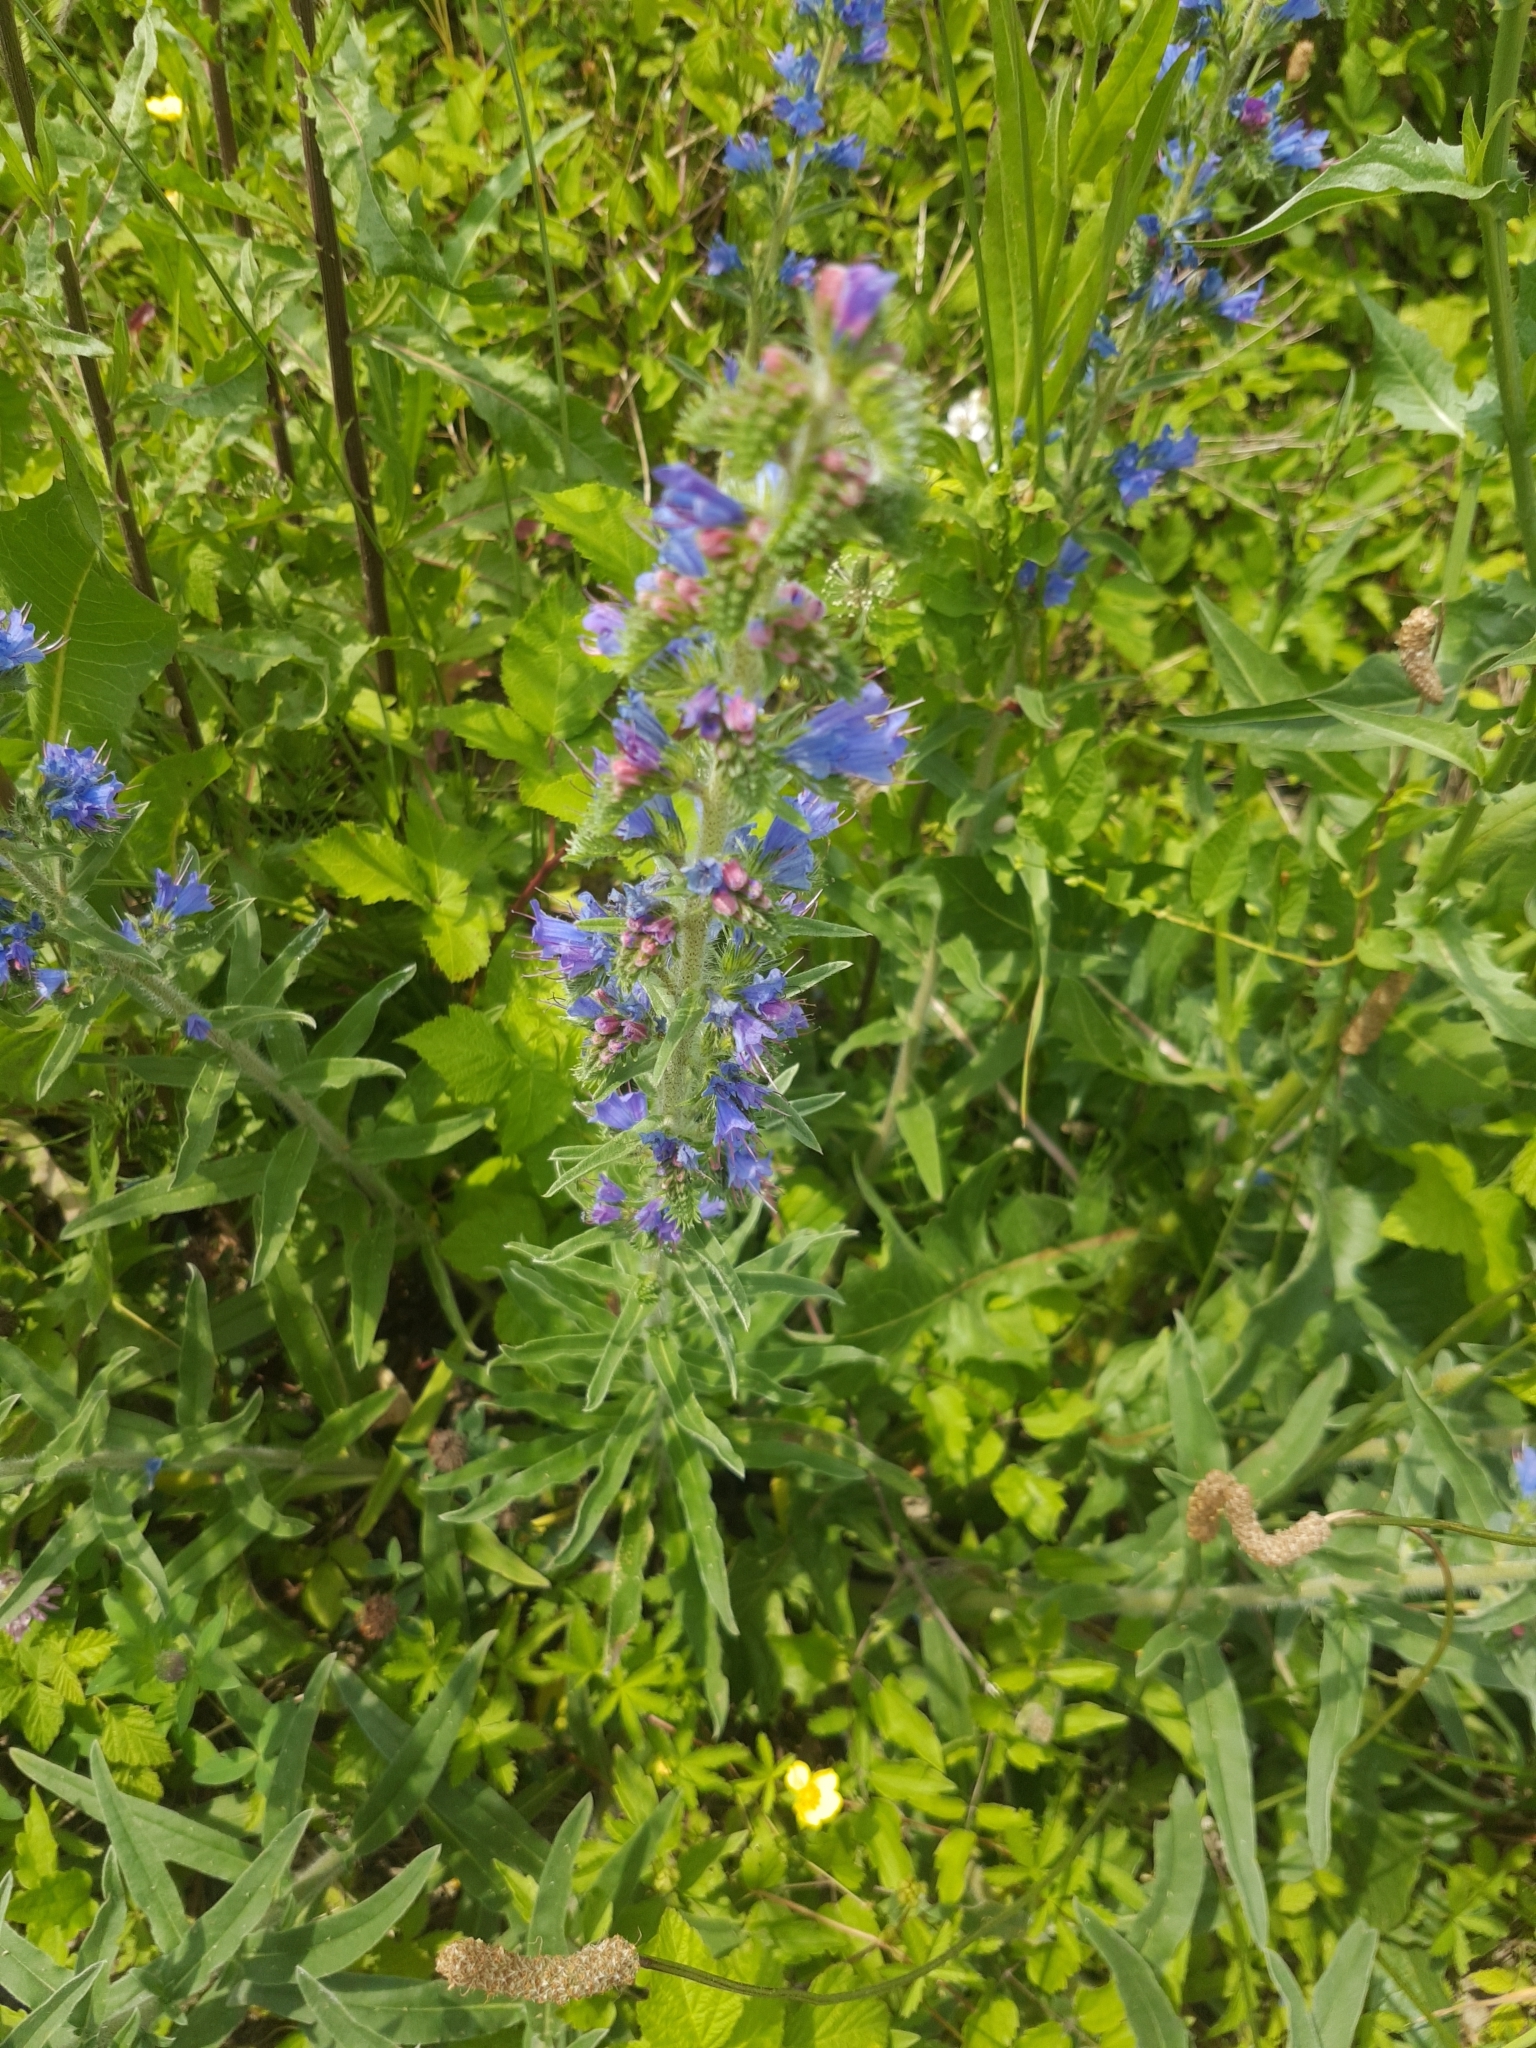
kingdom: Plantae
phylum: Tracheophyta
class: Magnoliopsida
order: Boraginales
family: Boraginaceae
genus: Echium
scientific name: Echium vulgare
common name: Common viper's bugloss
